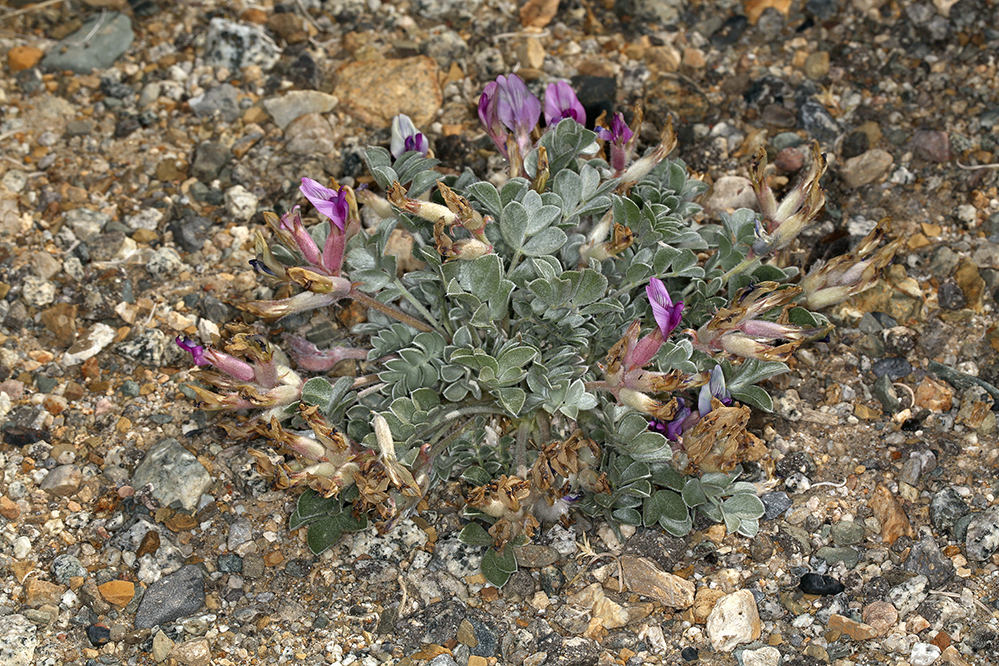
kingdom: Plantae
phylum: Tracheophyta
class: Magnoliopsida
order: Fabales
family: Fabaceae
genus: Astragalus
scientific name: Astragalus newberryi
